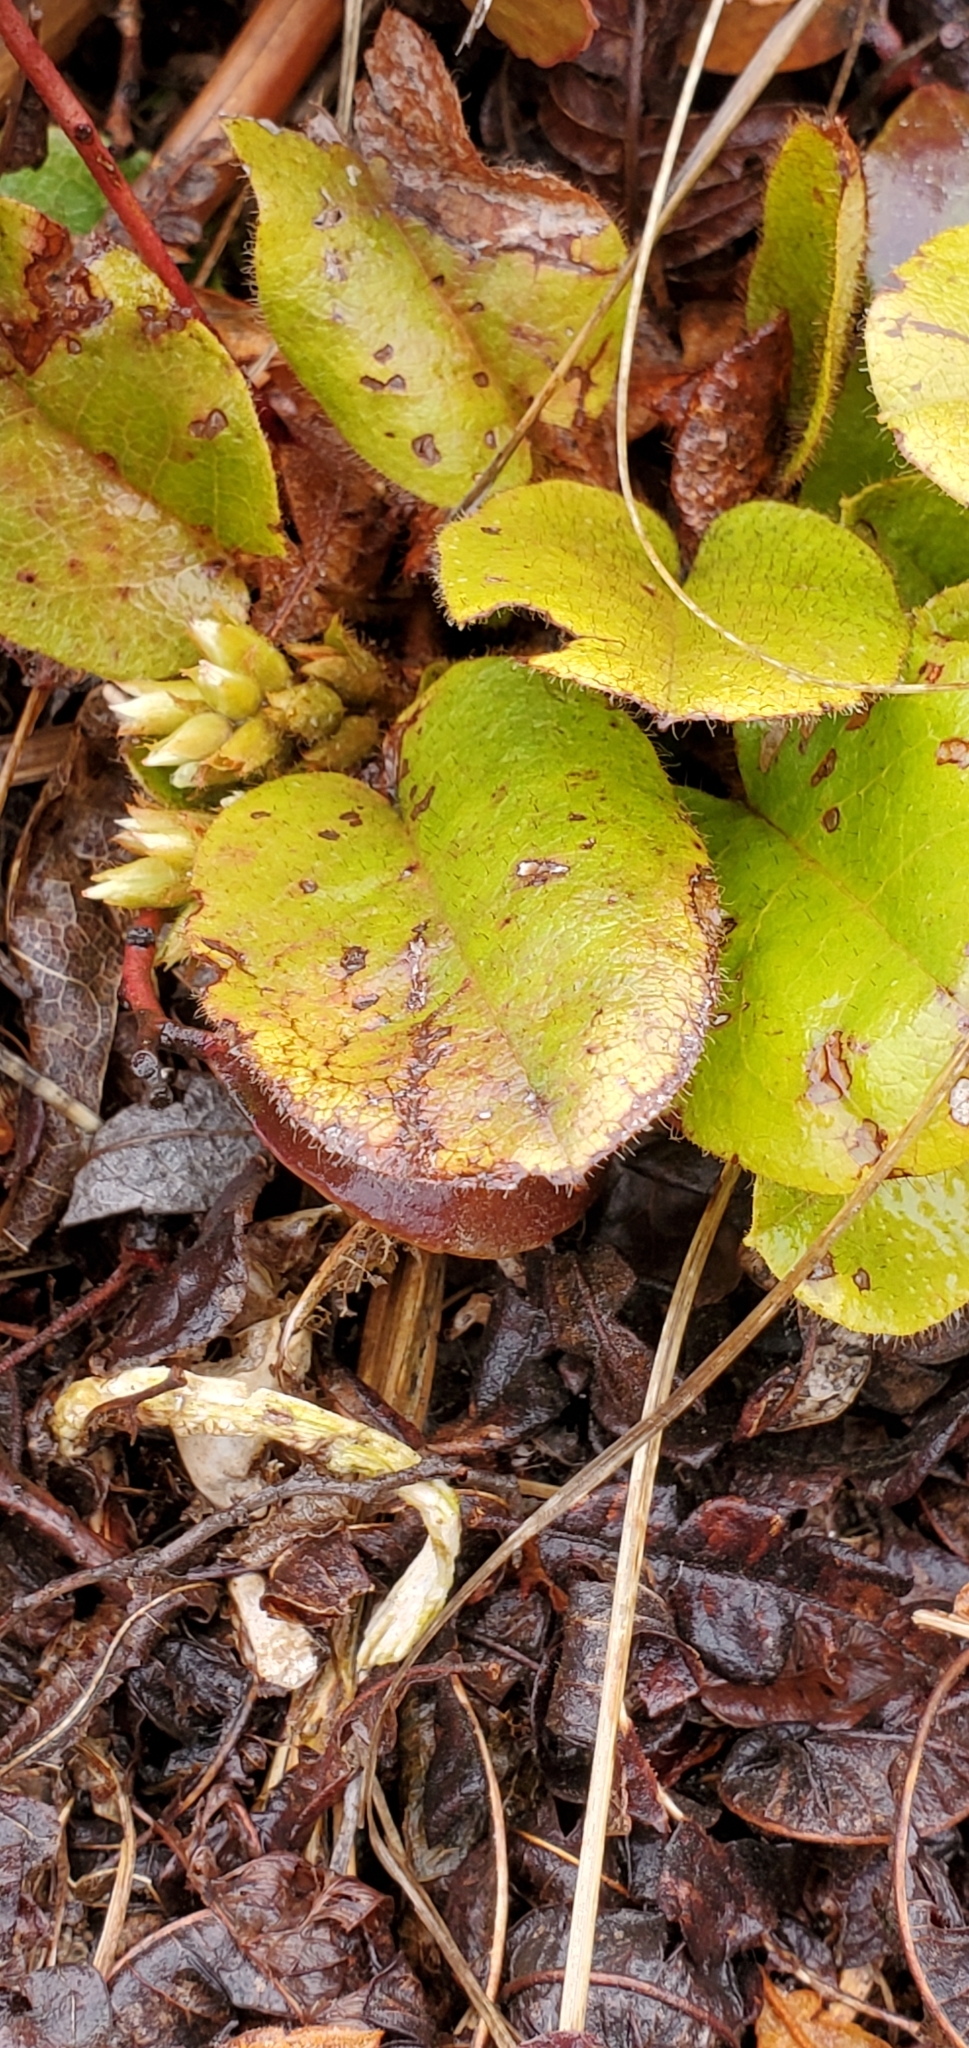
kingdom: Plantae
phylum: Tracheophyta
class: Magnoliopsida
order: Ericales
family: Ericaceae
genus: Epigaea
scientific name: Epigaea repens
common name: Gravelroot
